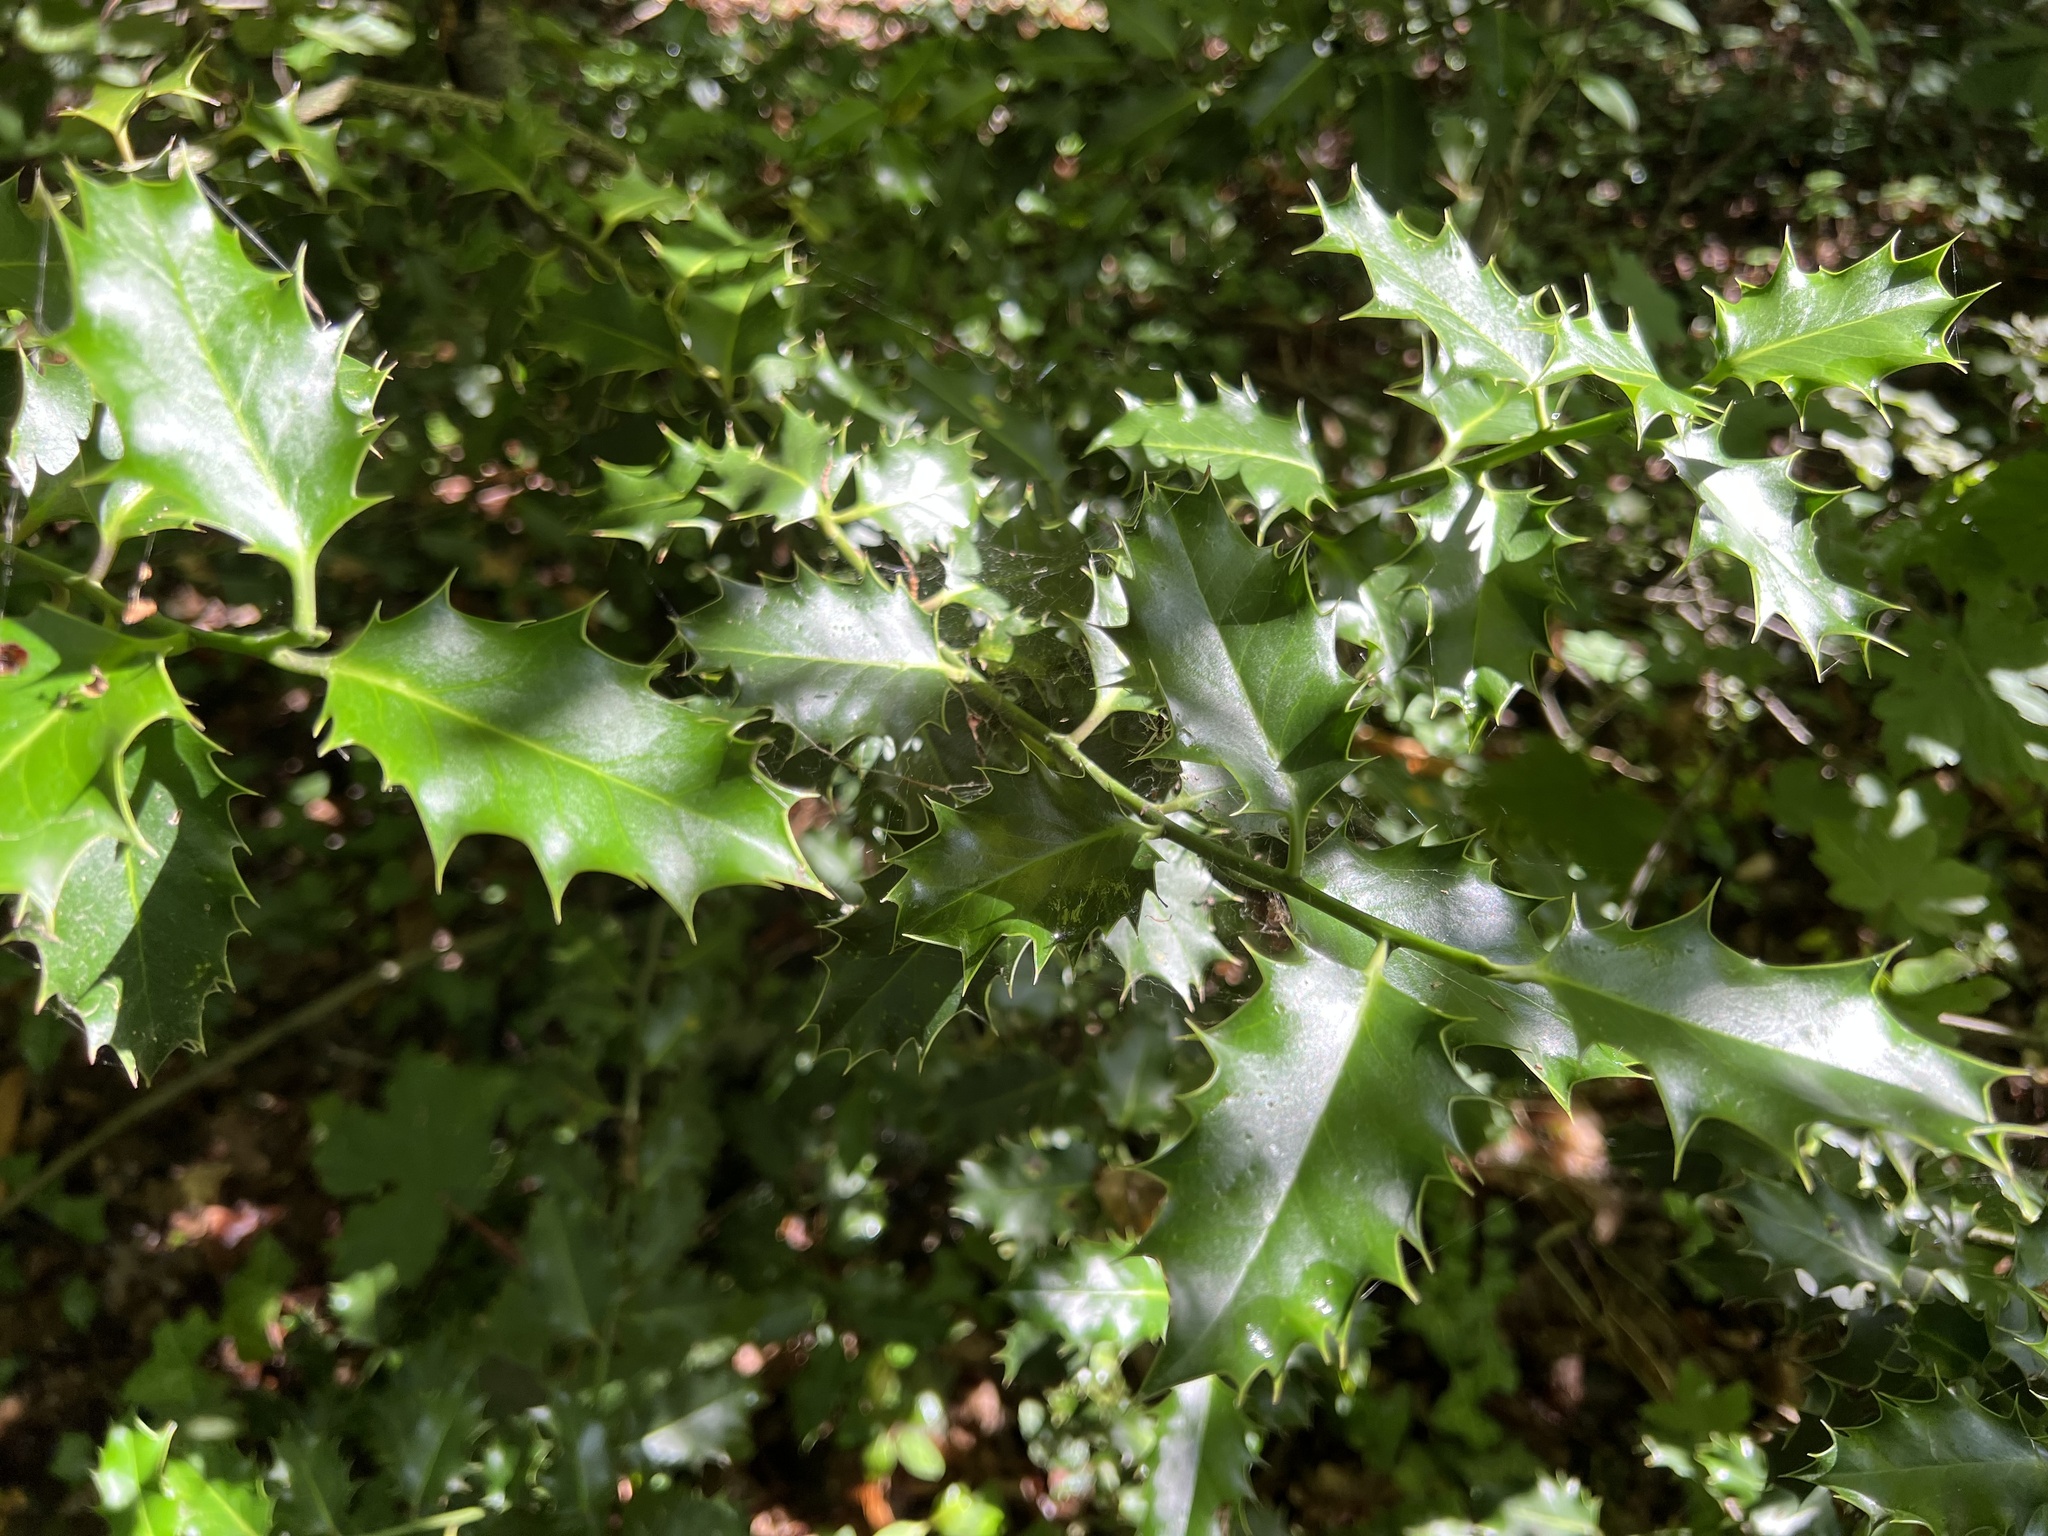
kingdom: Plantae
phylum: Tracheophyta
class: Magnoliopsida
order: Aquifoliales
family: Aquifoliaceae
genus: Ilex
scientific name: Ilex aquifolium
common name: English holly
